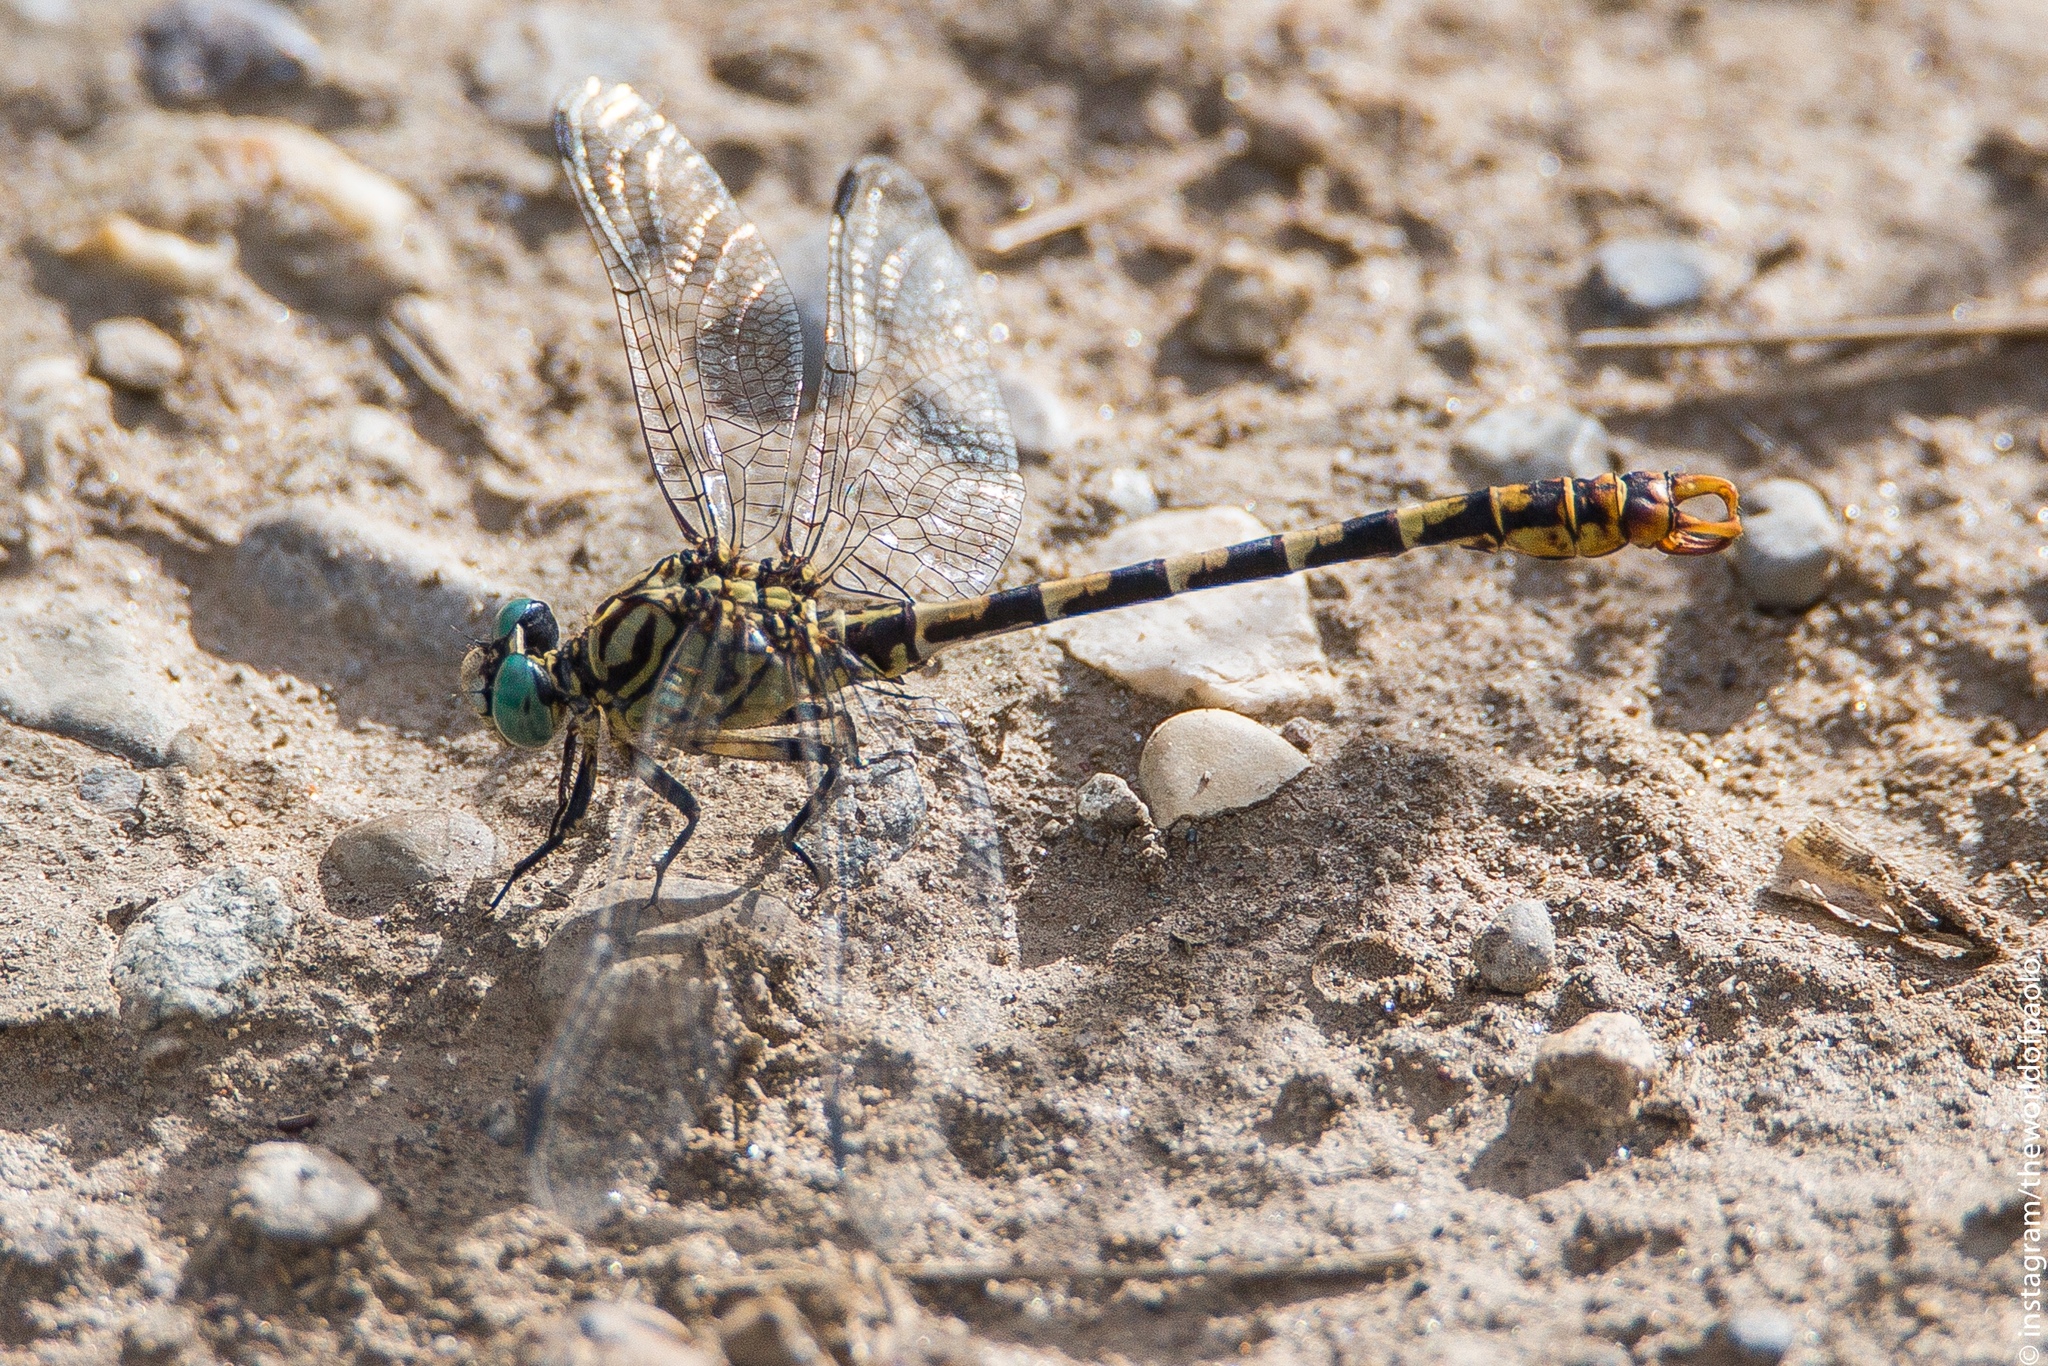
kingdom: Animalia
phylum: Arthropoda
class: Insecta
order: Odonata
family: Gomphidae
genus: Onychogomphus
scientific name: Onychogomphus forcipatus
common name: Small pincertail
